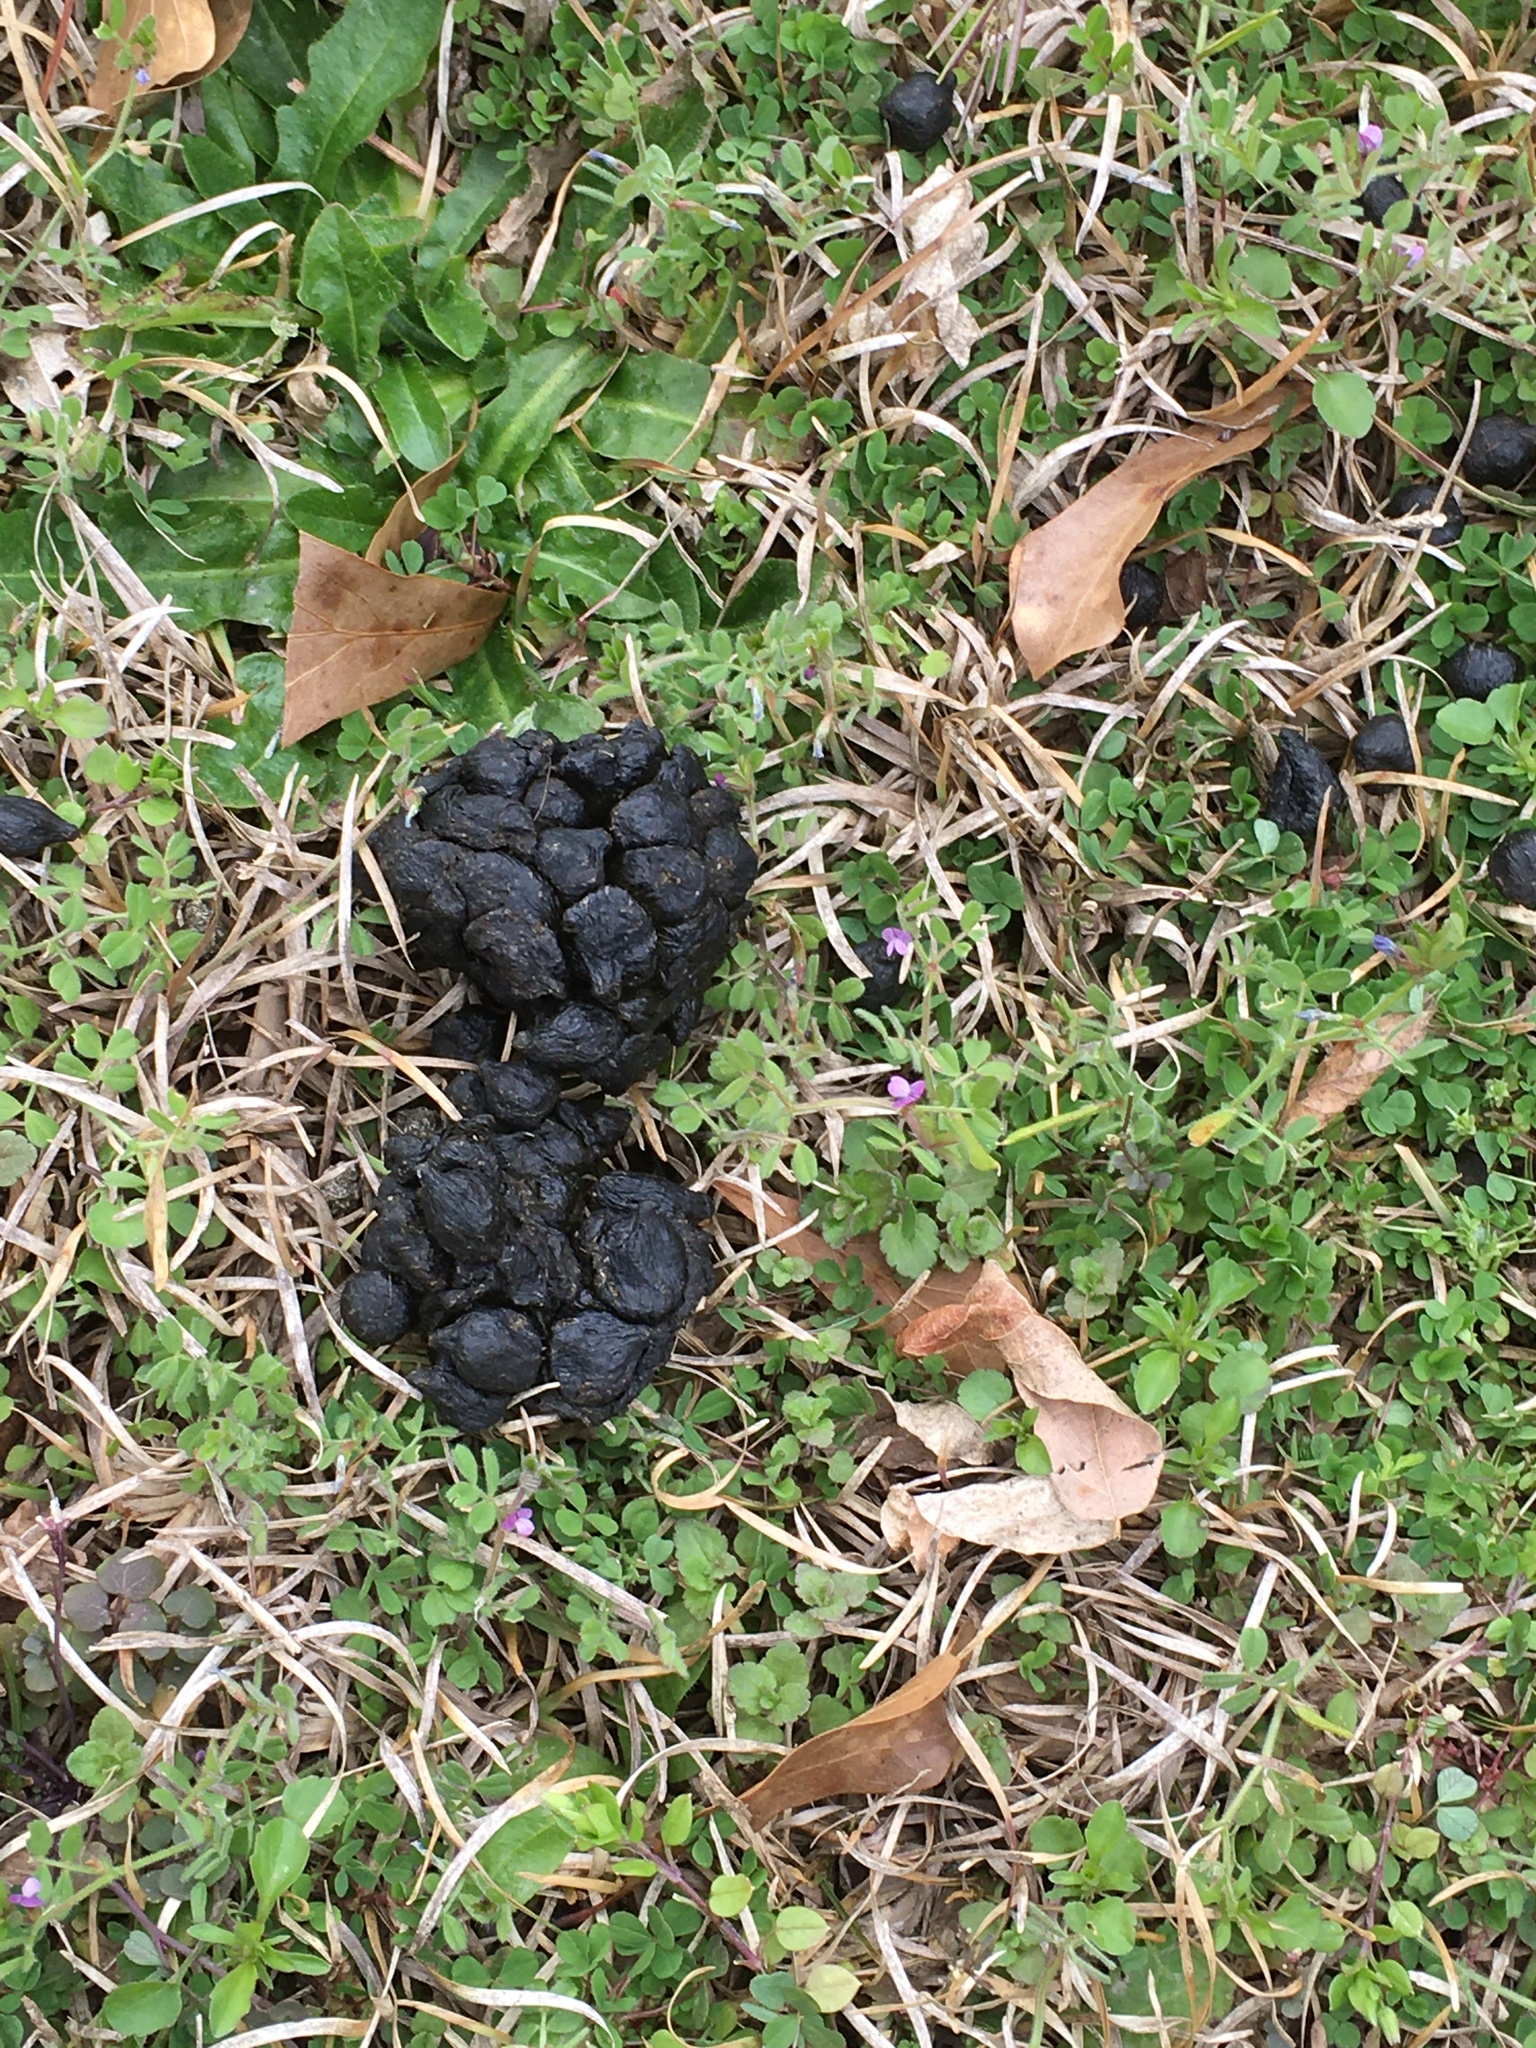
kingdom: Animalia
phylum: Chordata
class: Mammalia
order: Artiodactyla
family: Cervidae
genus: Odocoileus
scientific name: Odocoileus virginianus
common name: White-tailed deer
